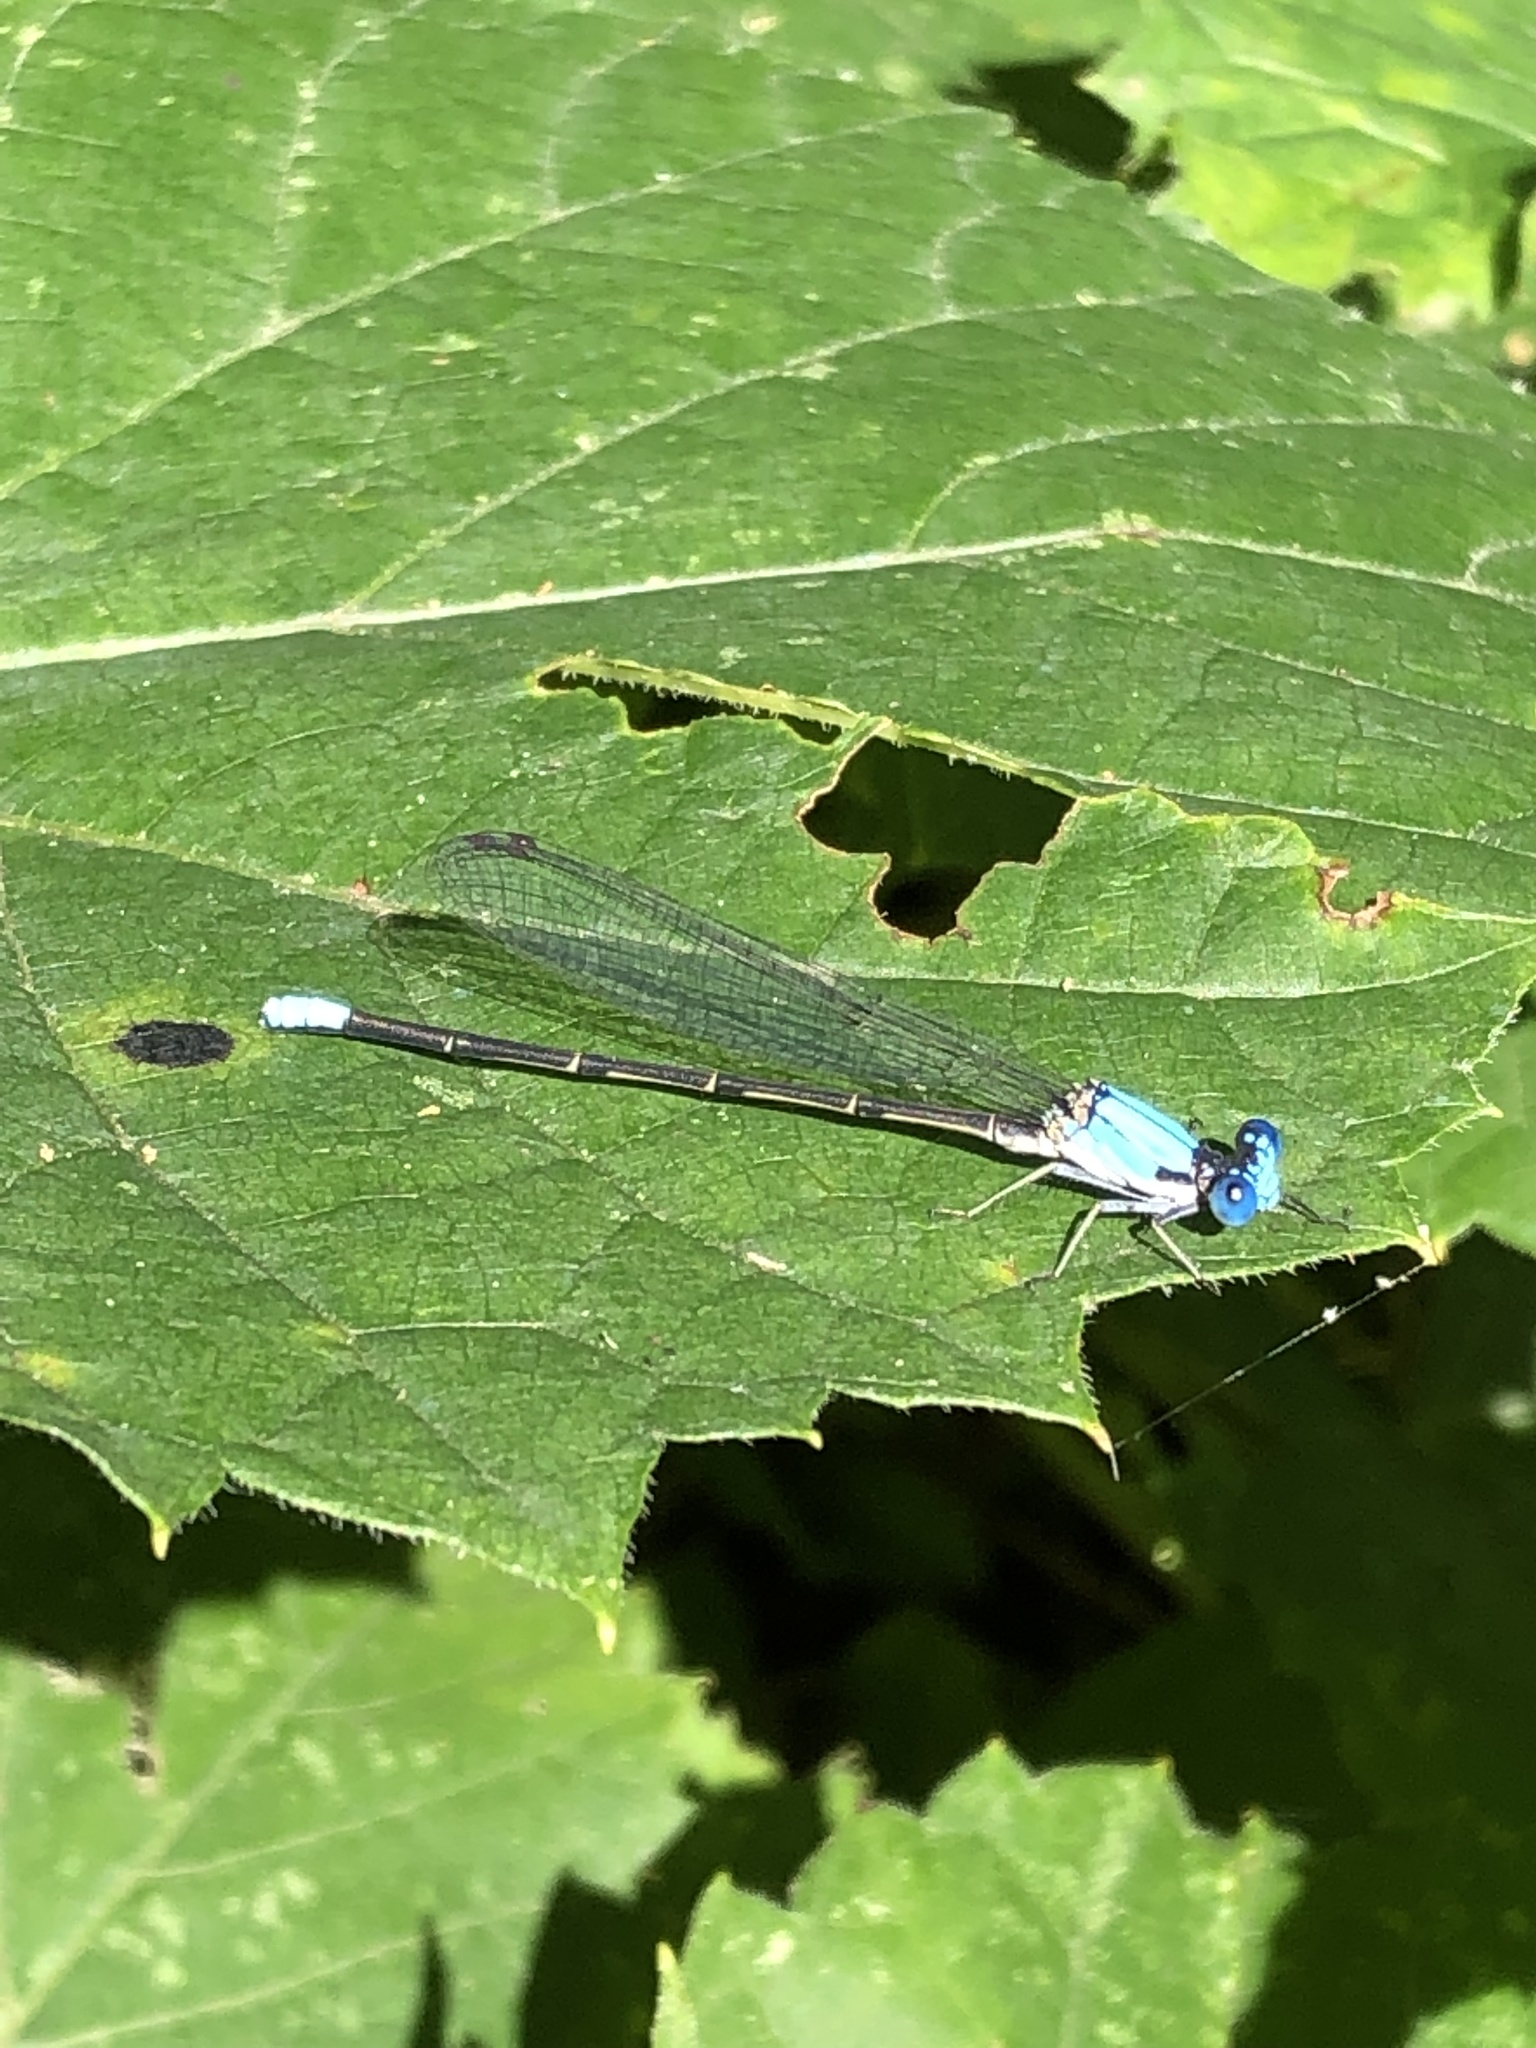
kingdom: Animalia
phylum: Arthropoda
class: Insecta
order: Odonata
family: Coenagrionidae
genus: Argia
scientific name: Argia apicalis
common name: Blue-fronted dancer
